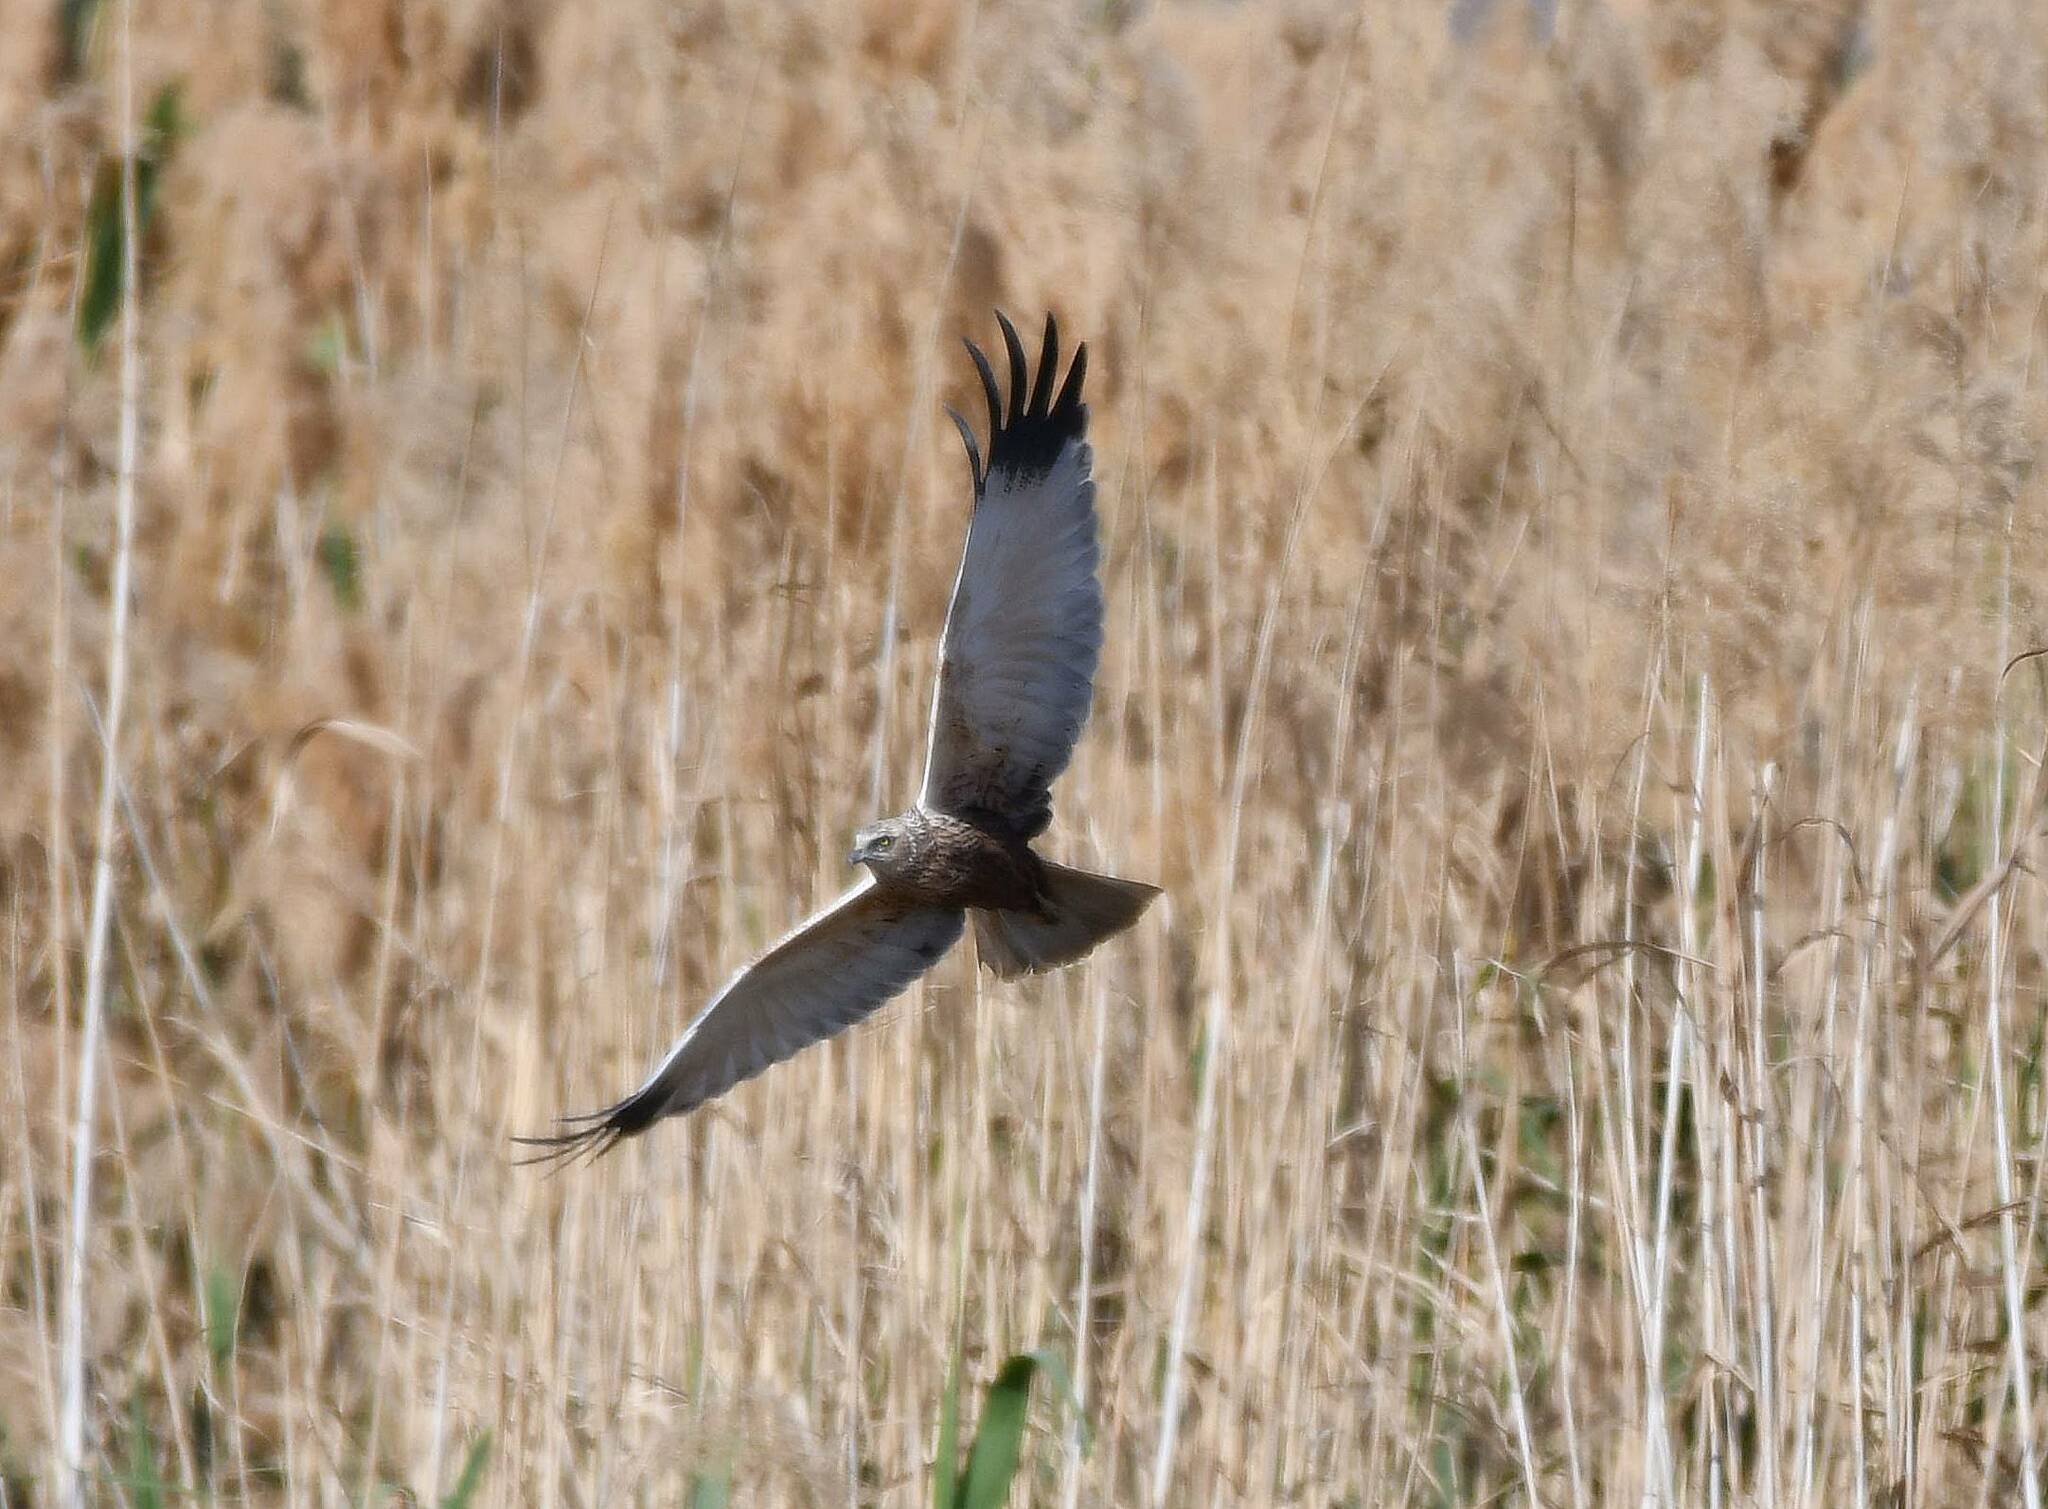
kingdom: Animalia
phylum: Chordata
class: Aves
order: Accipitriformes
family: Accipitridae
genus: Circus
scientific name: Circus aeruginosus
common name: Western marsh harrier
